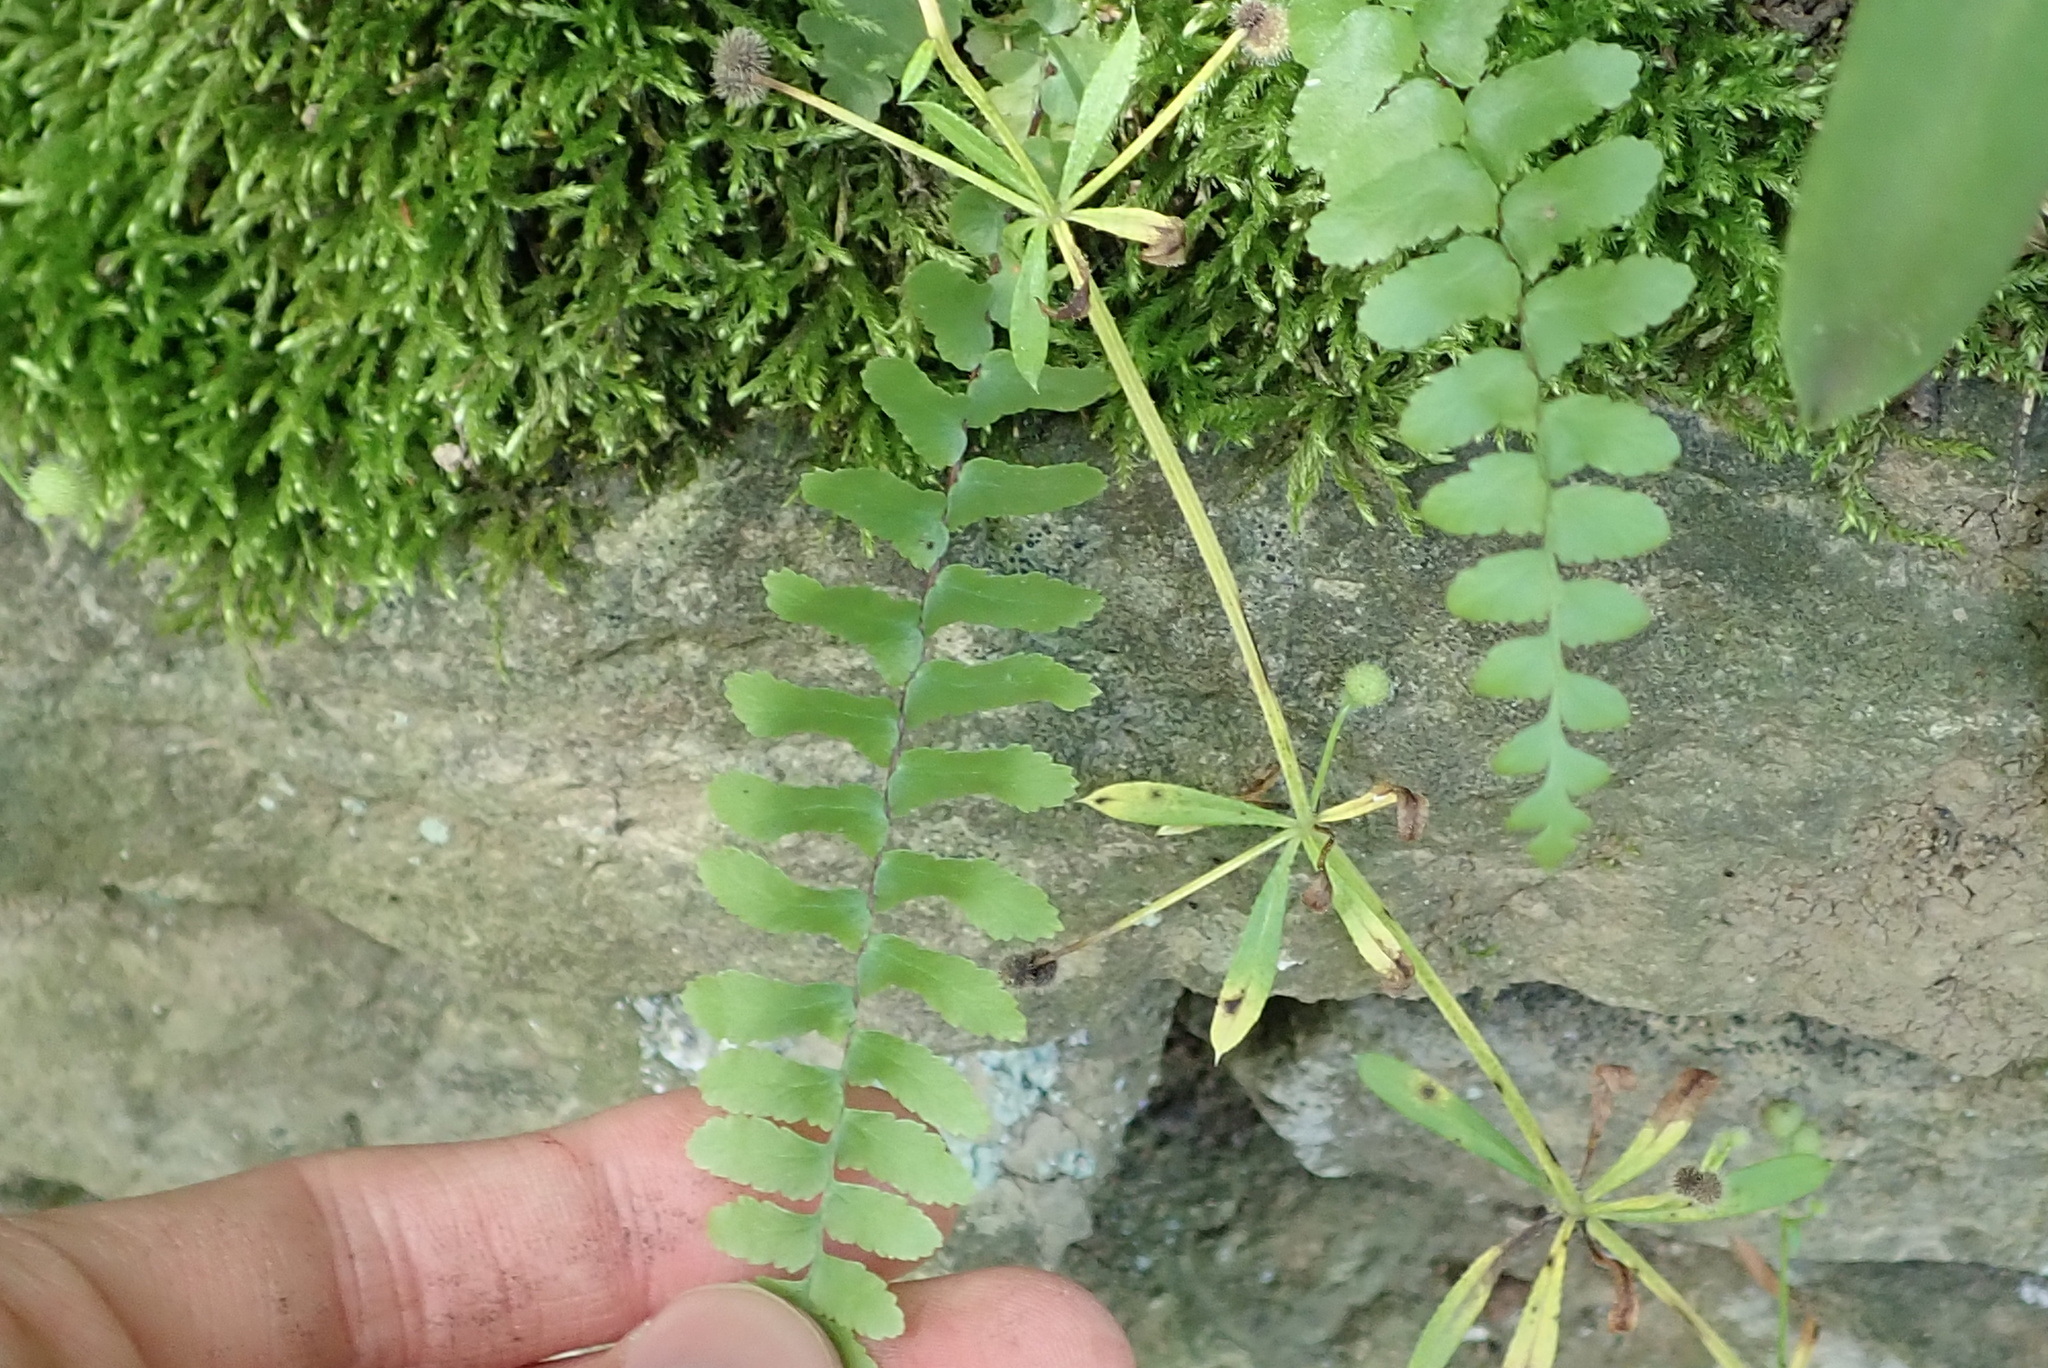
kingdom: Plantae
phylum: Tracheophyta
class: Polypodiopsida
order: Polypodiales
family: Aspleniaceae
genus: Asplenium
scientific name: Asplenium platyneuron
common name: Ebony spleenwort
